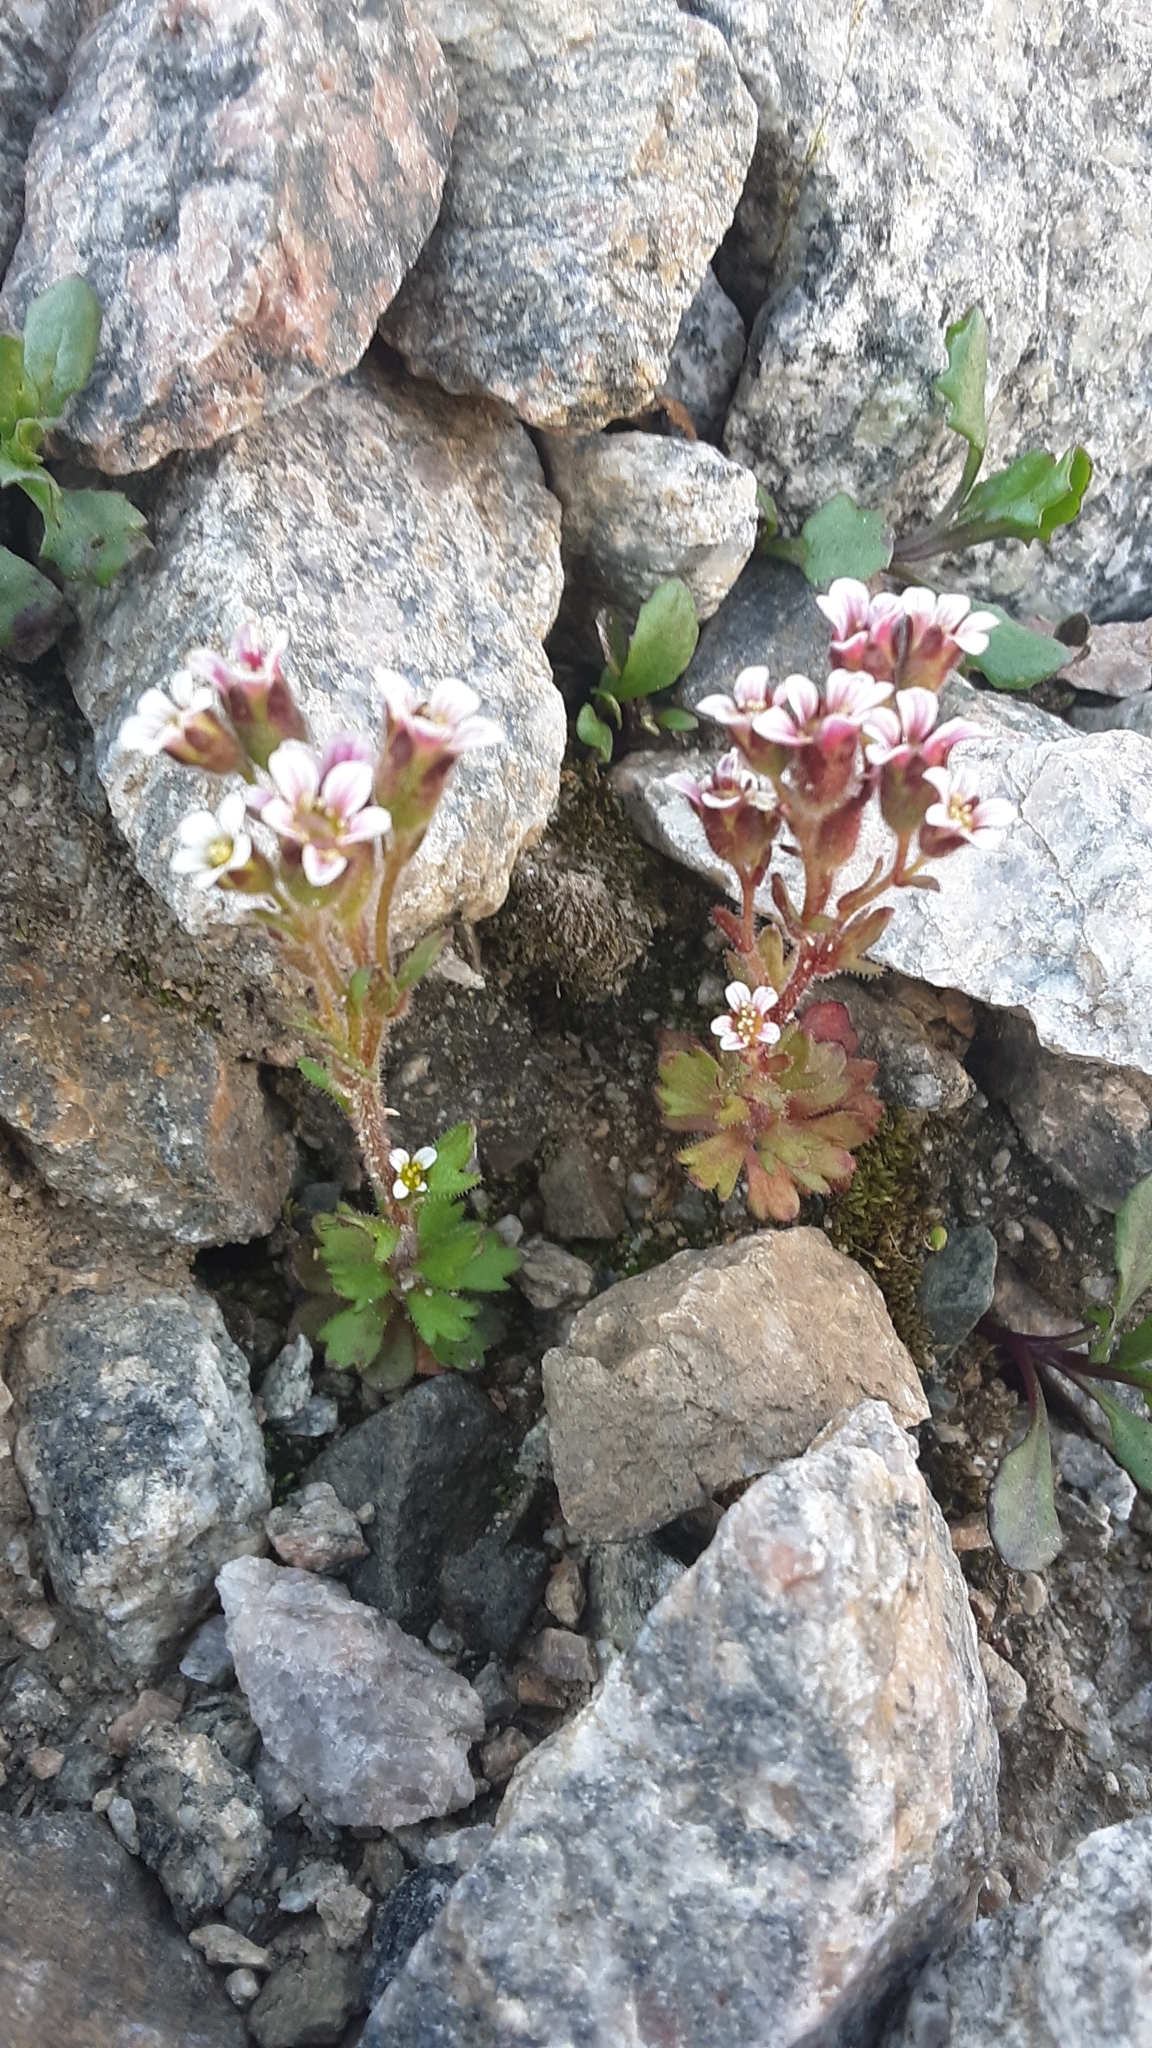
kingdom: Plantae
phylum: Tracheophyta
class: Magnoliopsida
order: Saxifragales
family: Saxifragaceae
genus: Saxifraga
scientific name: Saxifraga adscendens
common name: Ascending saxifrage
